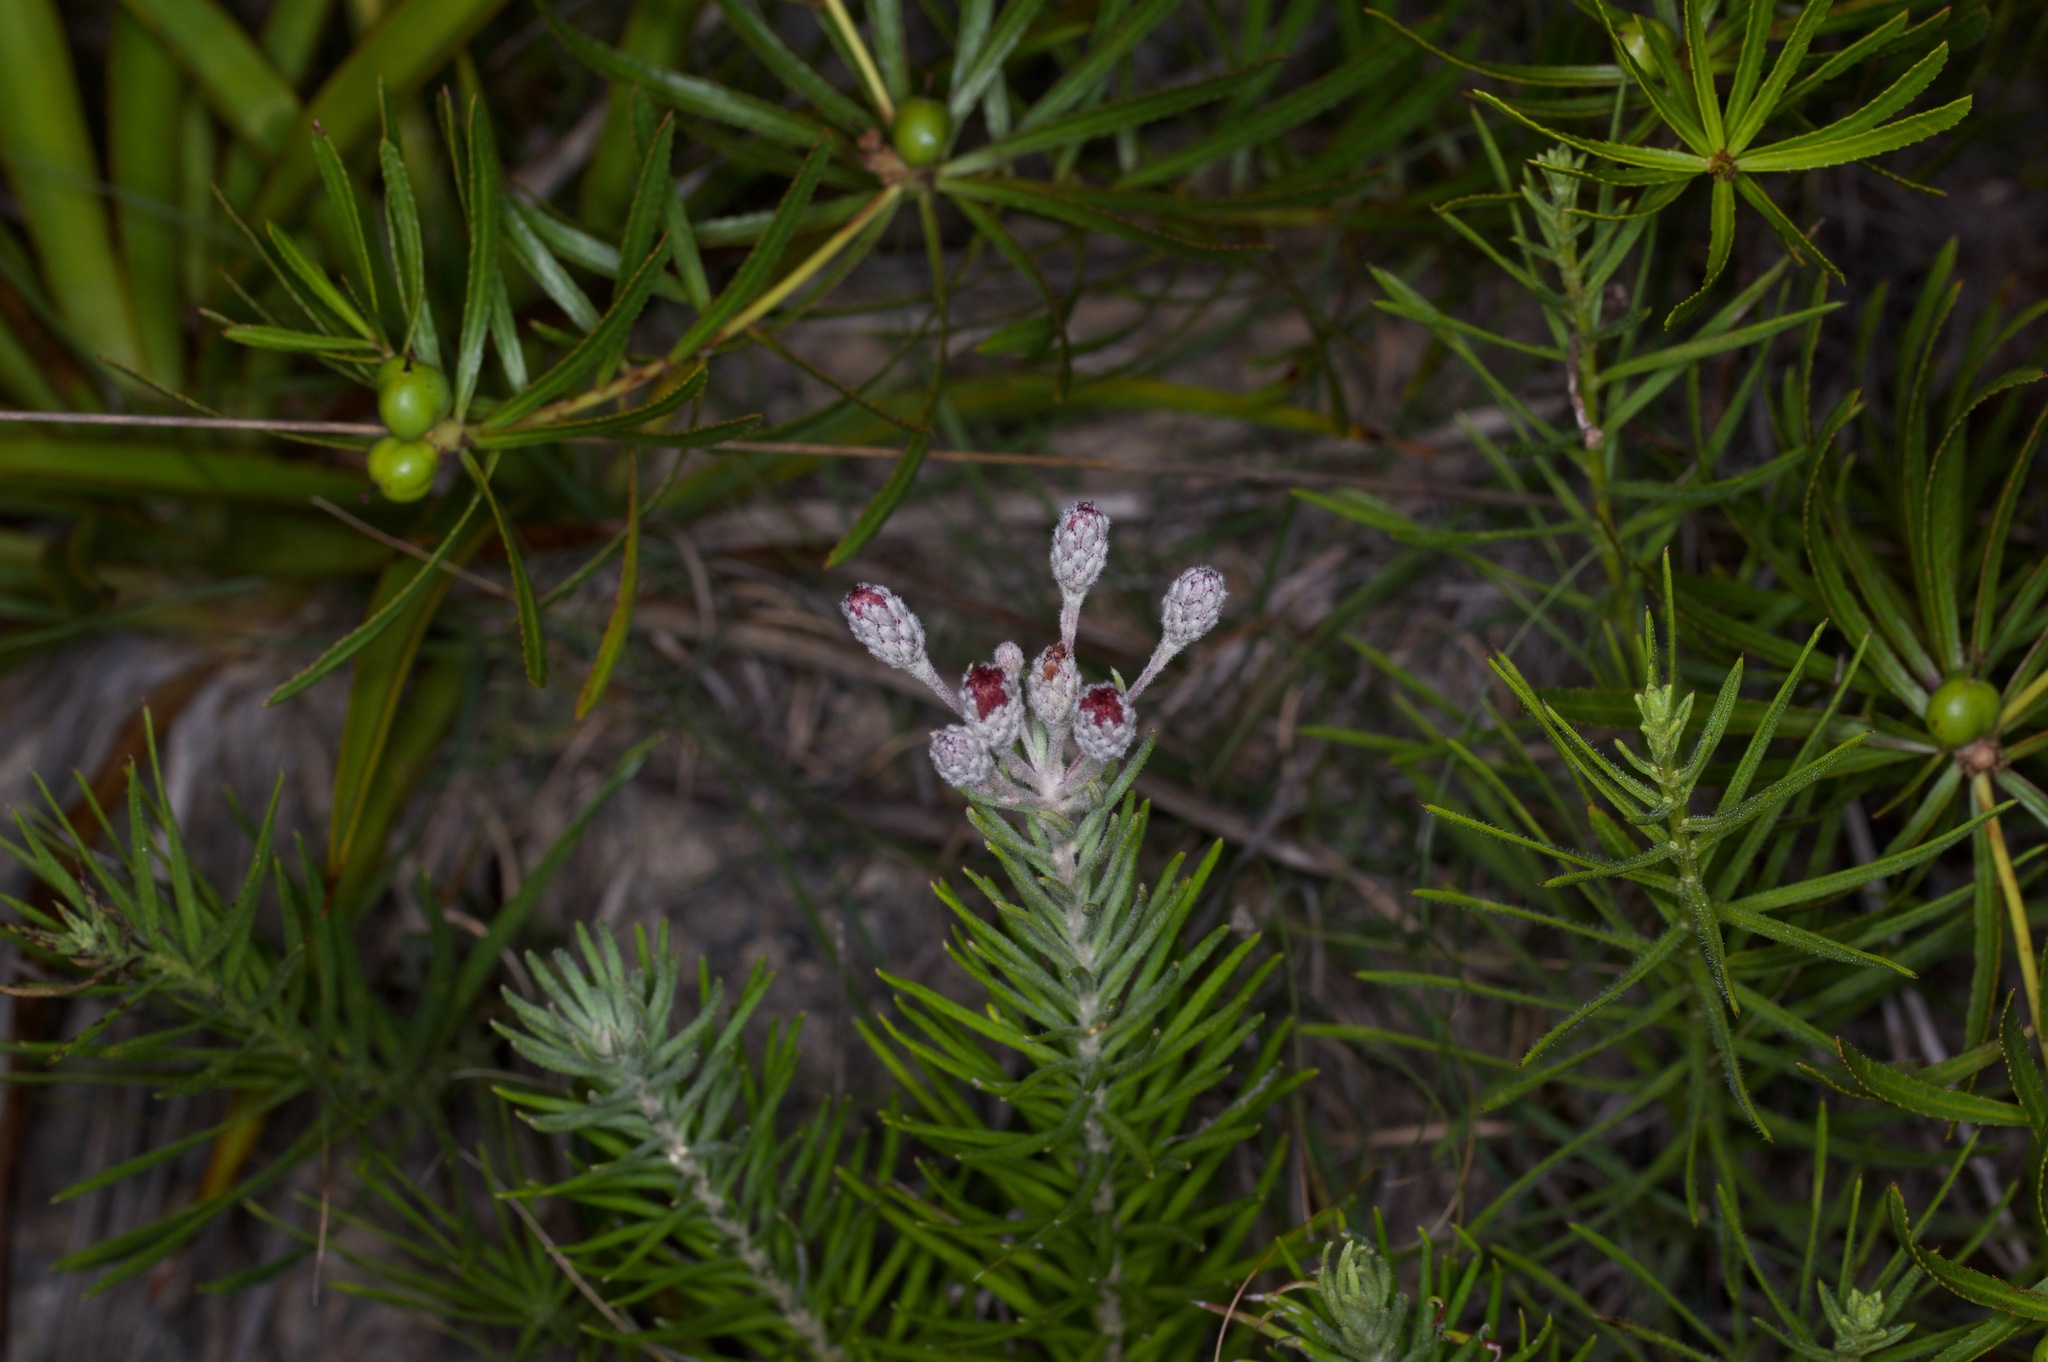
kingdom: Plantae
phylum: Tracheophyta
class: Magnoliopsida
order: Asterales
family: Asteraceae
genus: Vernonia
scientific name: Vernonia lindheimeri
